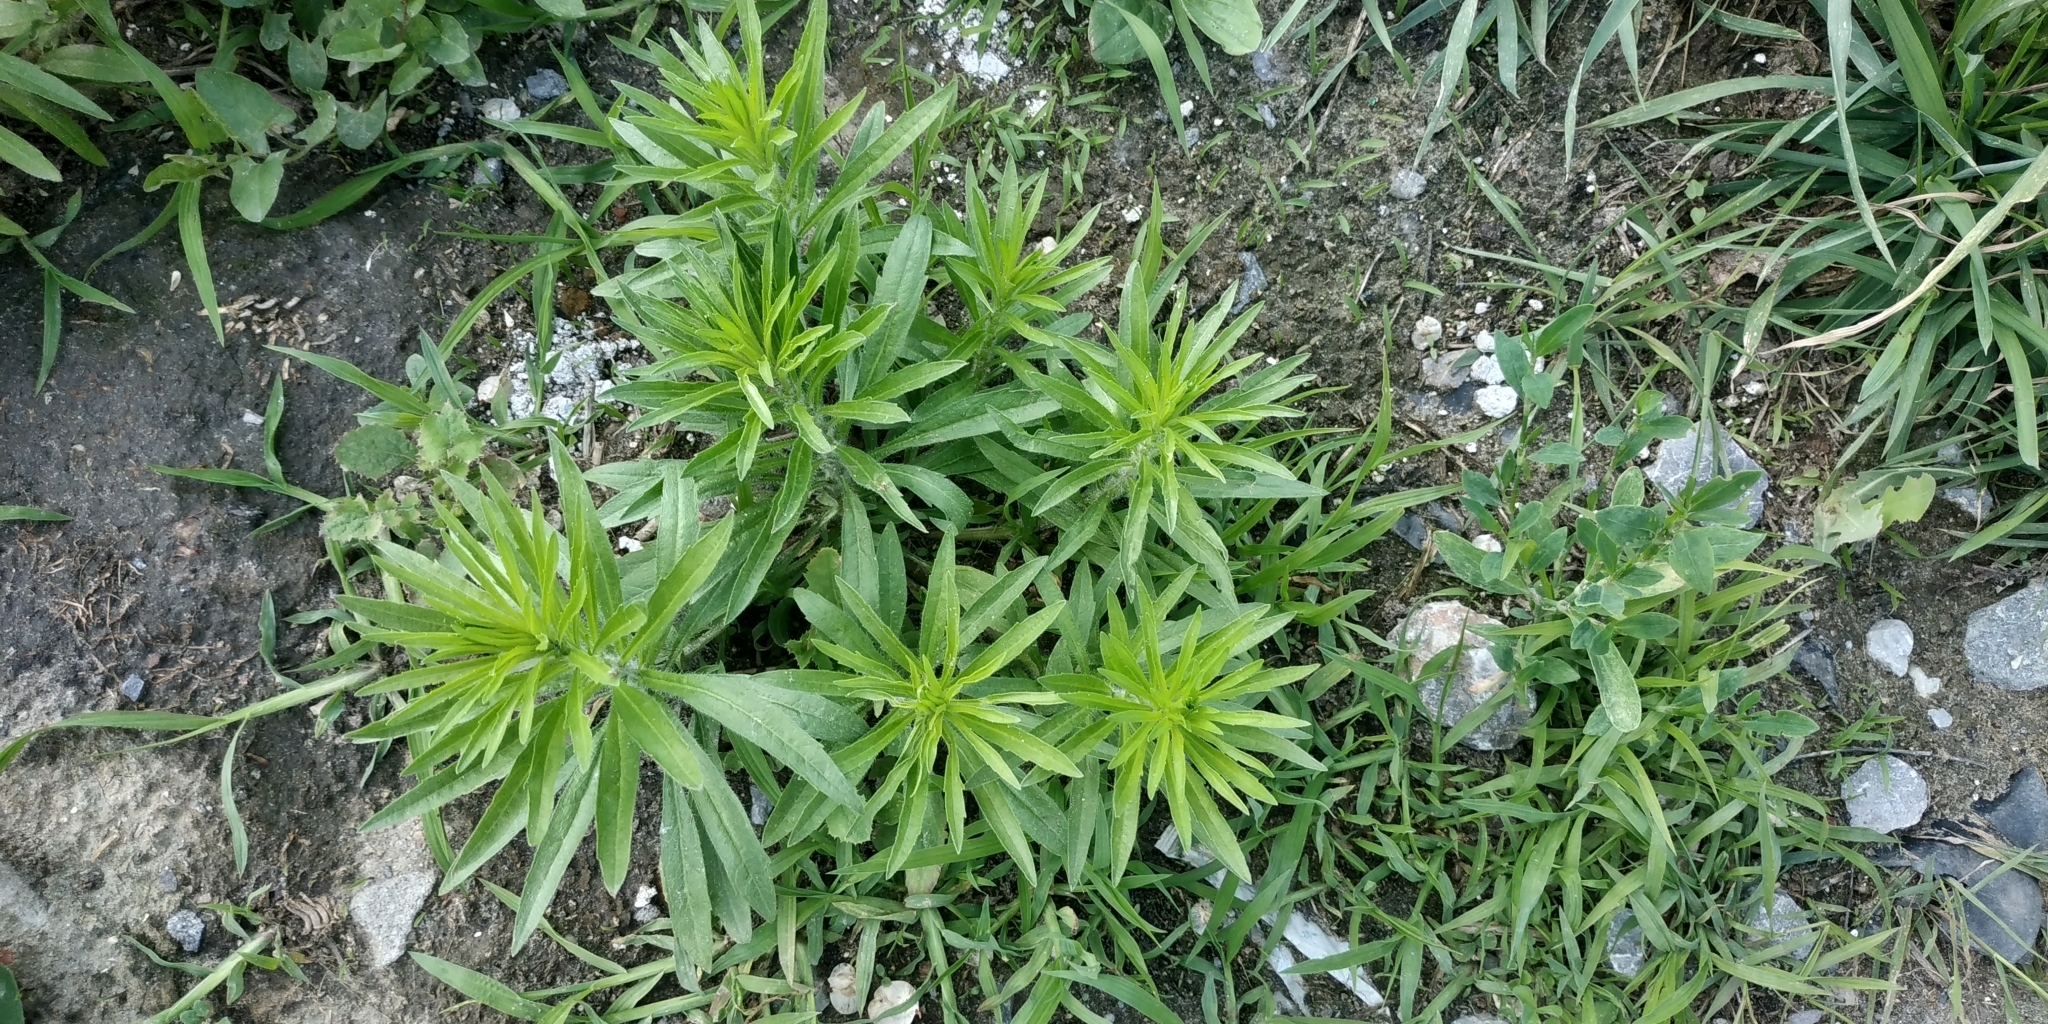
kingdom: Plantae
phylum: Tracheophyta
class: Magnoliopsida
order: Asterales
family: Asteraceae
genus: Erigeron
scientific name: Erigeron canadensis
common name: Canadian fleabane
